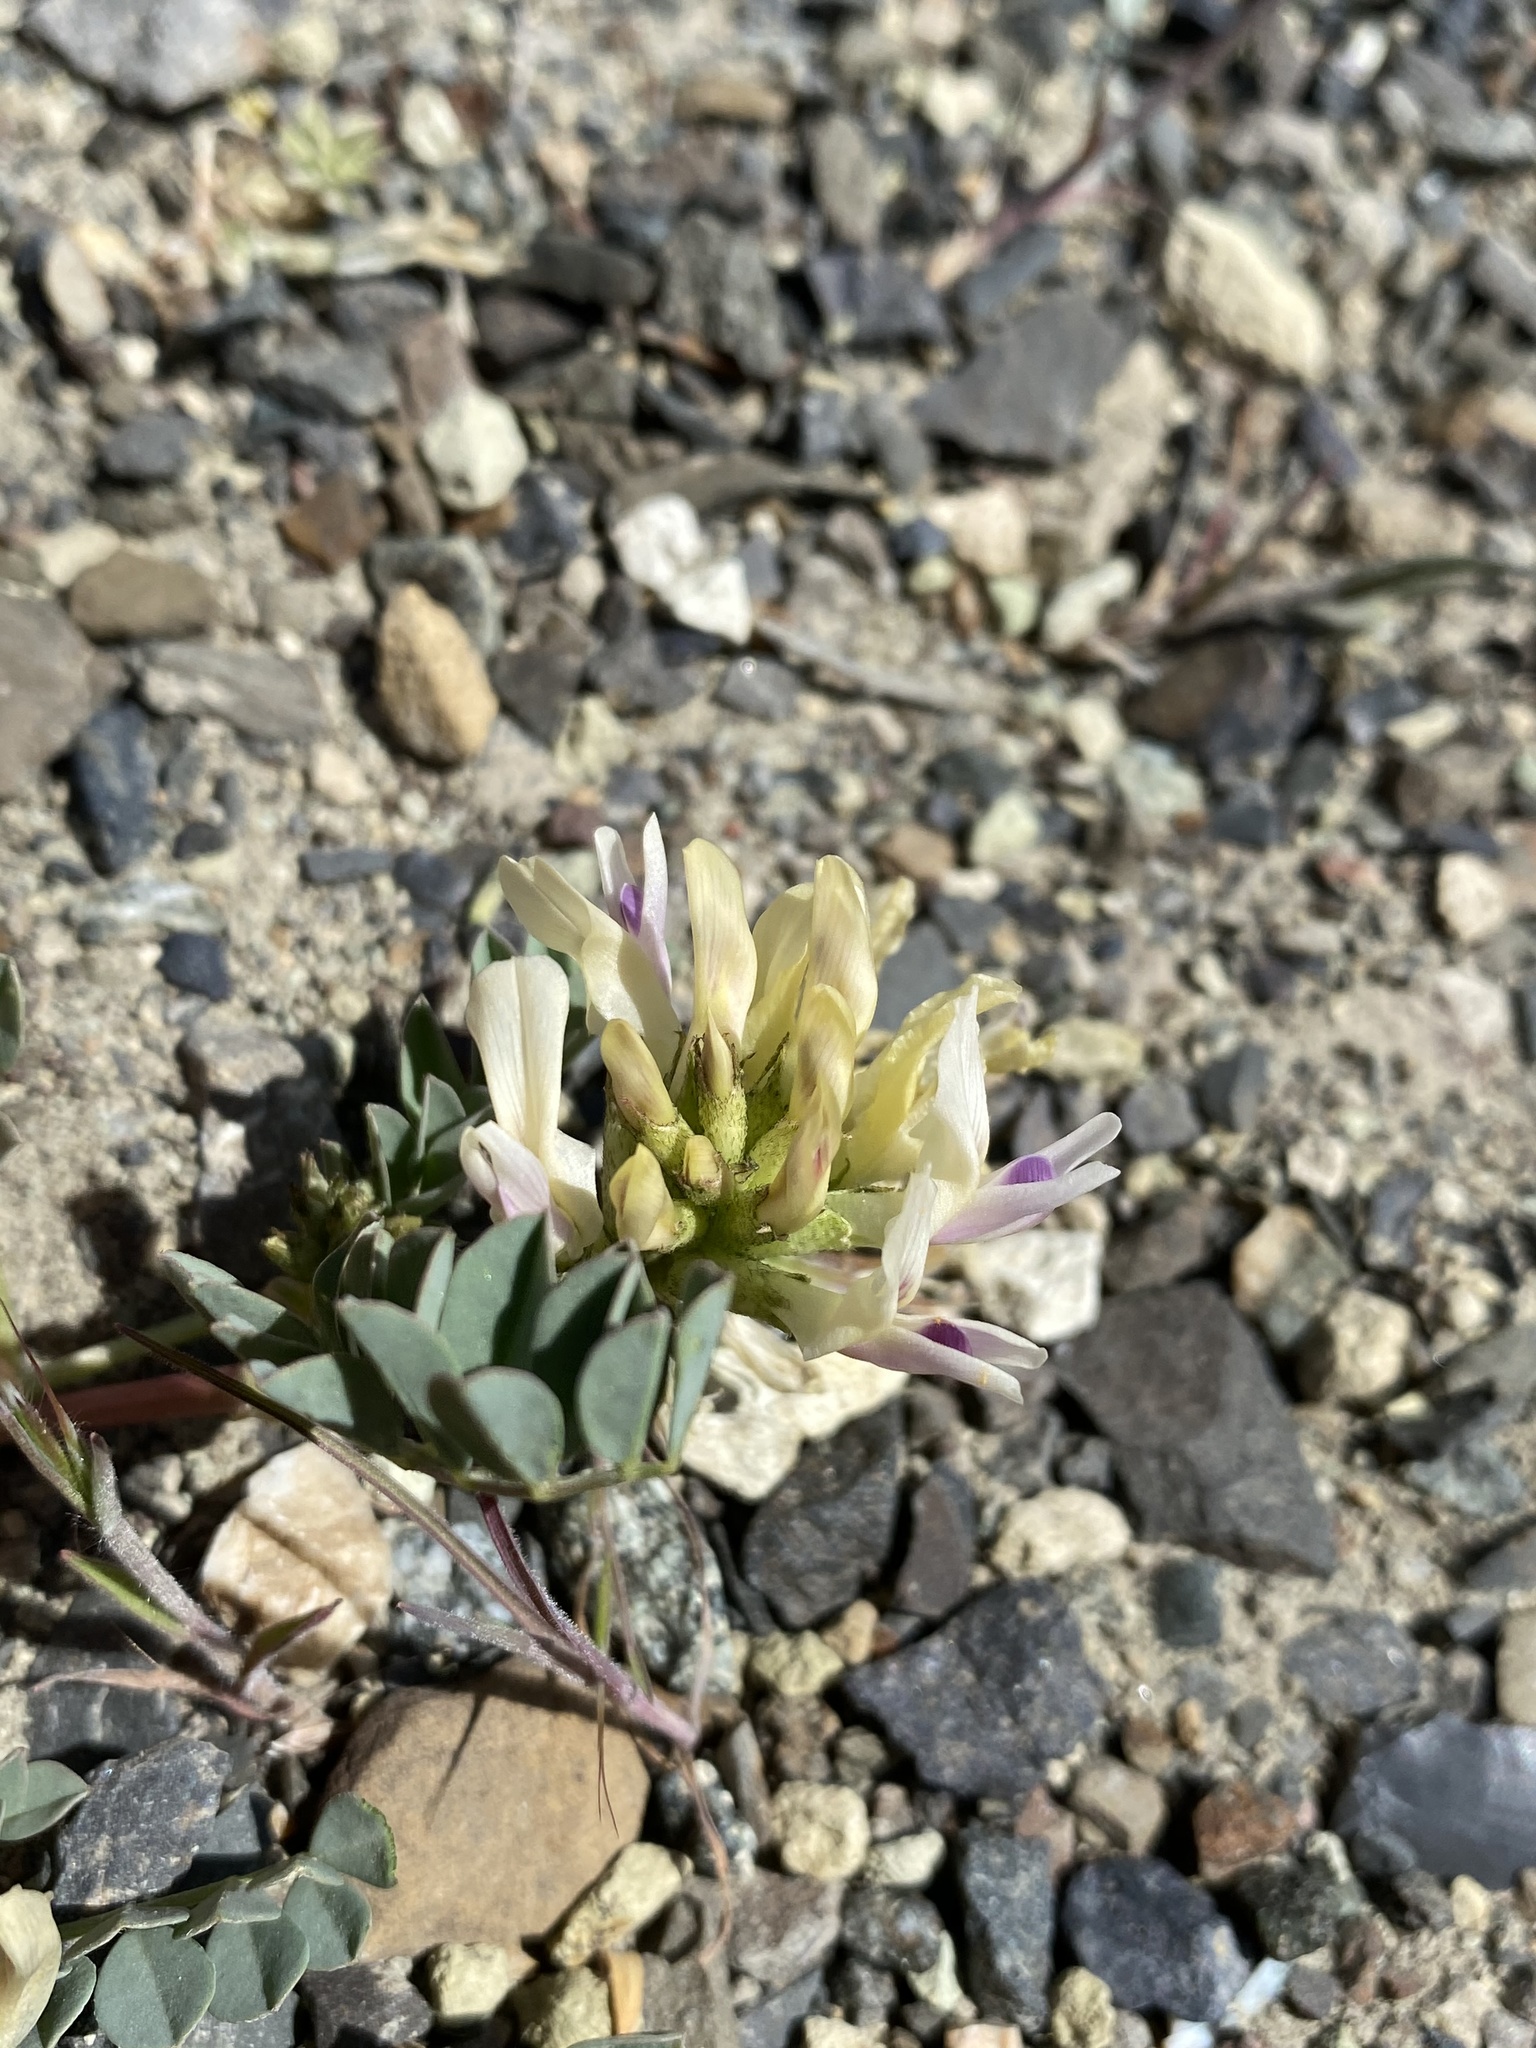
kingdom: Plantae
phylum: Tracheophyta
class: Magnoliopsida
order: Fabales
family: Fabaceae
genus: Astragalus
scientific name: Astragalus lentiginosus
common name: Freckled milkvetch
